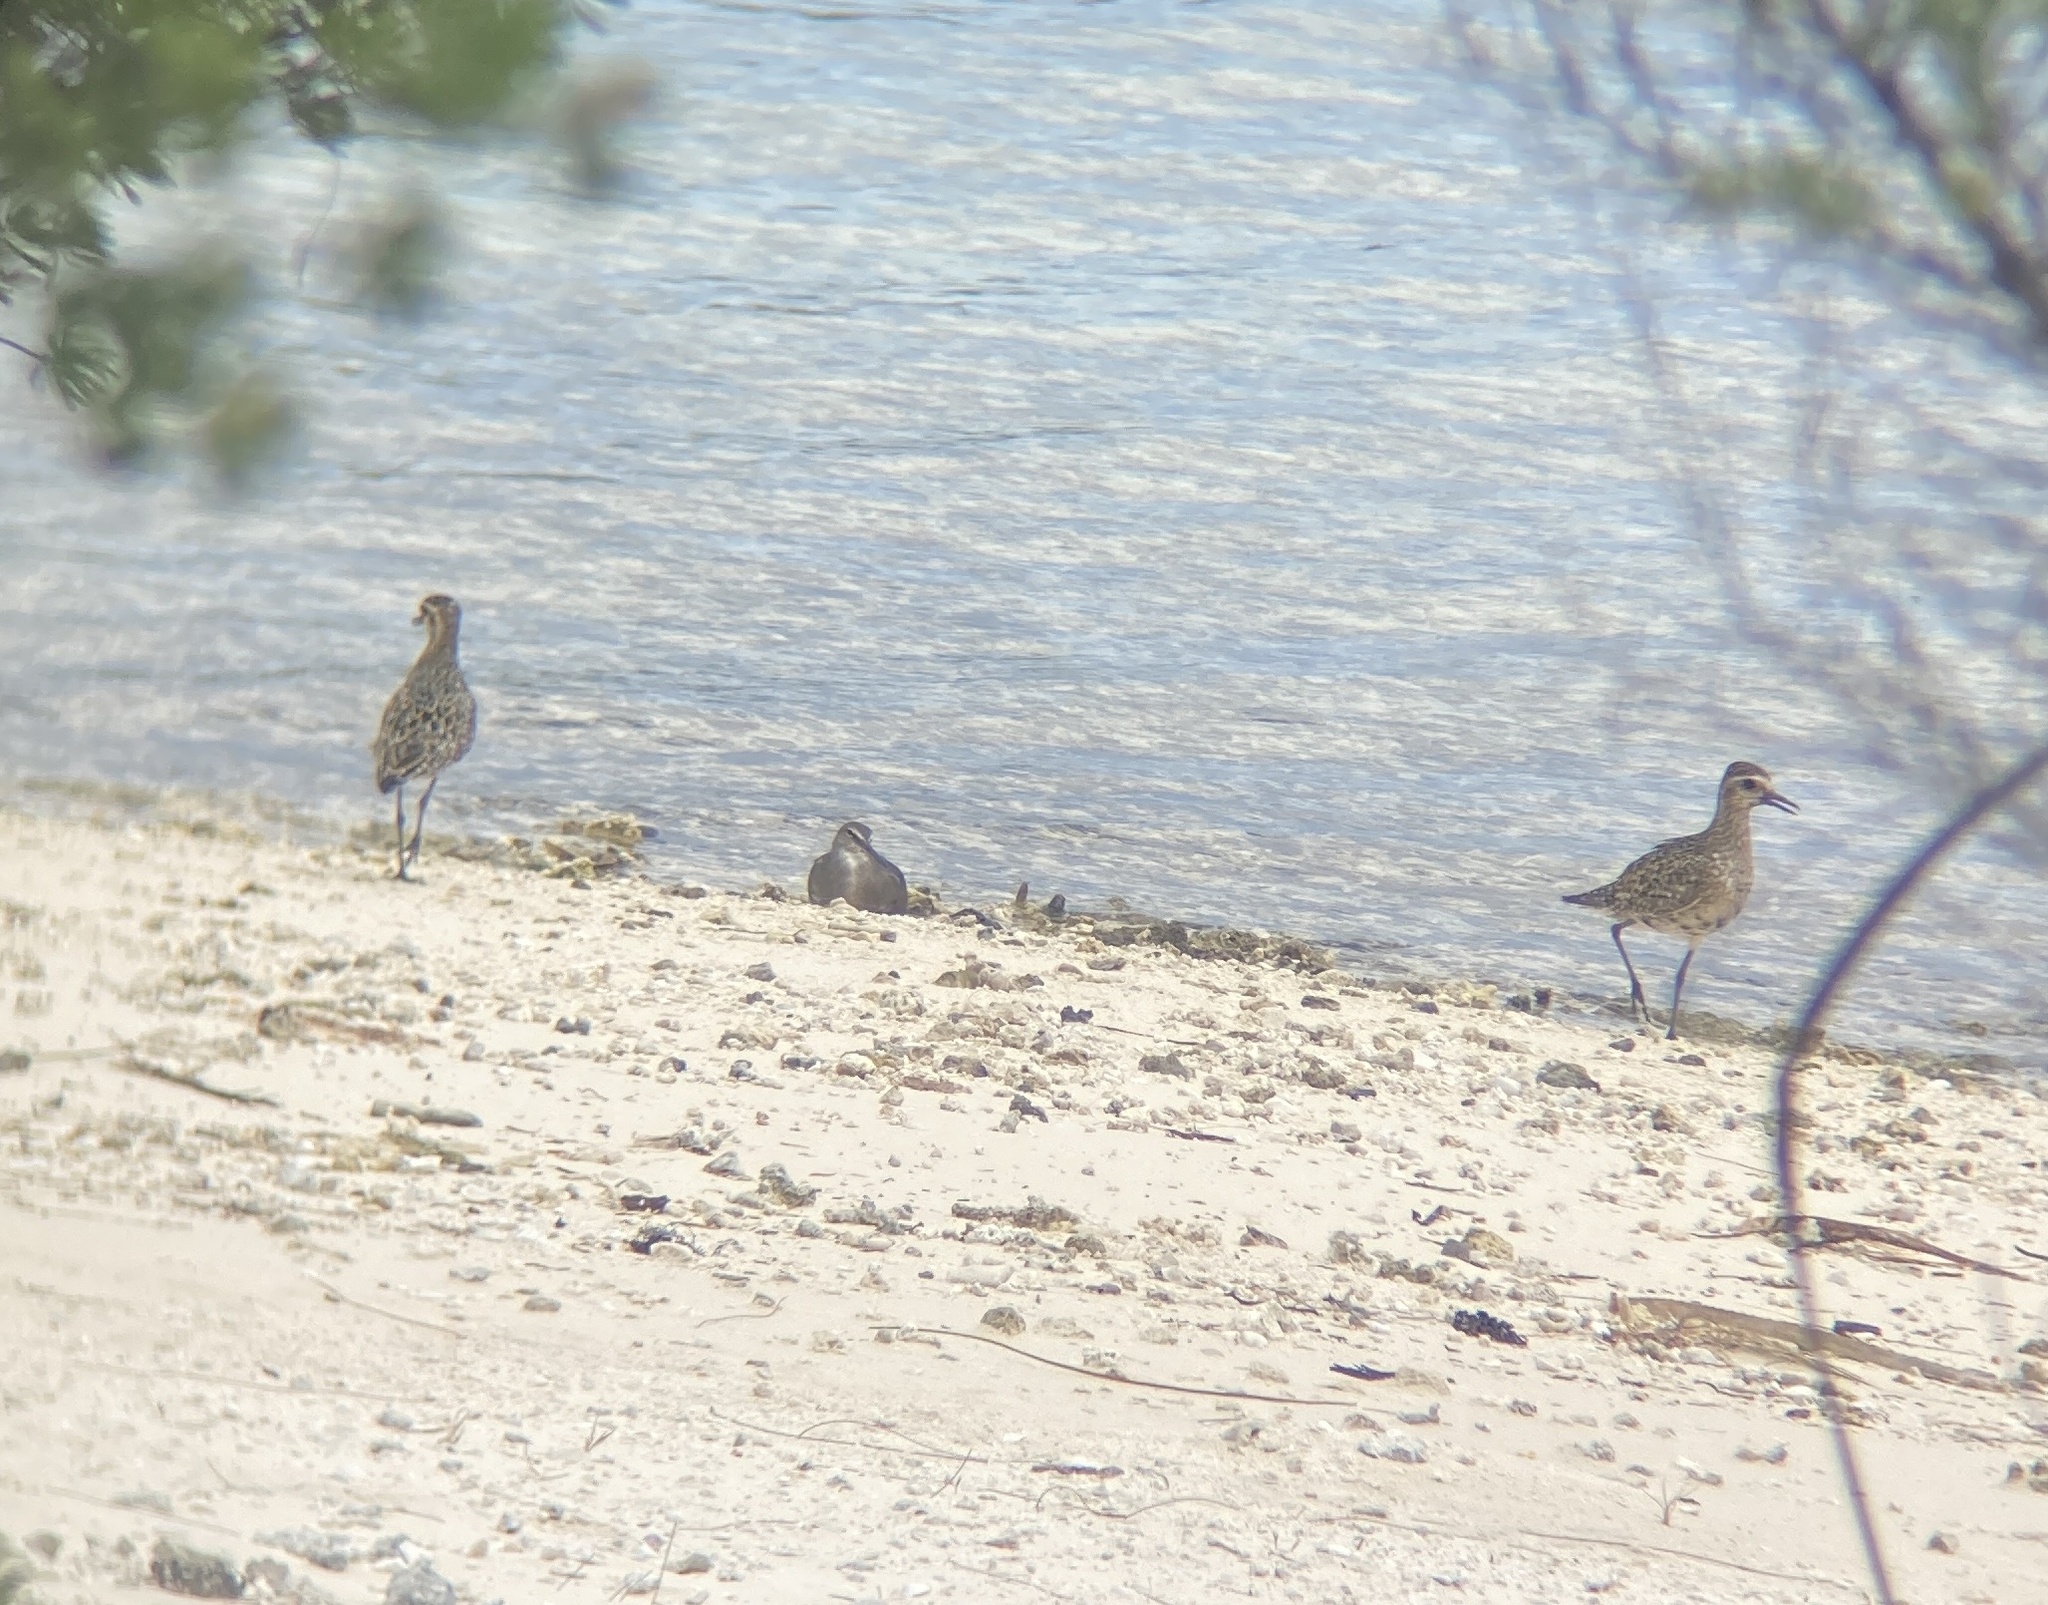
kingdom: Animalia
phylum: Chordata
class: Aves
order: Charadriiformes
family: Scolopacidae
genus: Tringa
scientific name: Tringa incana
